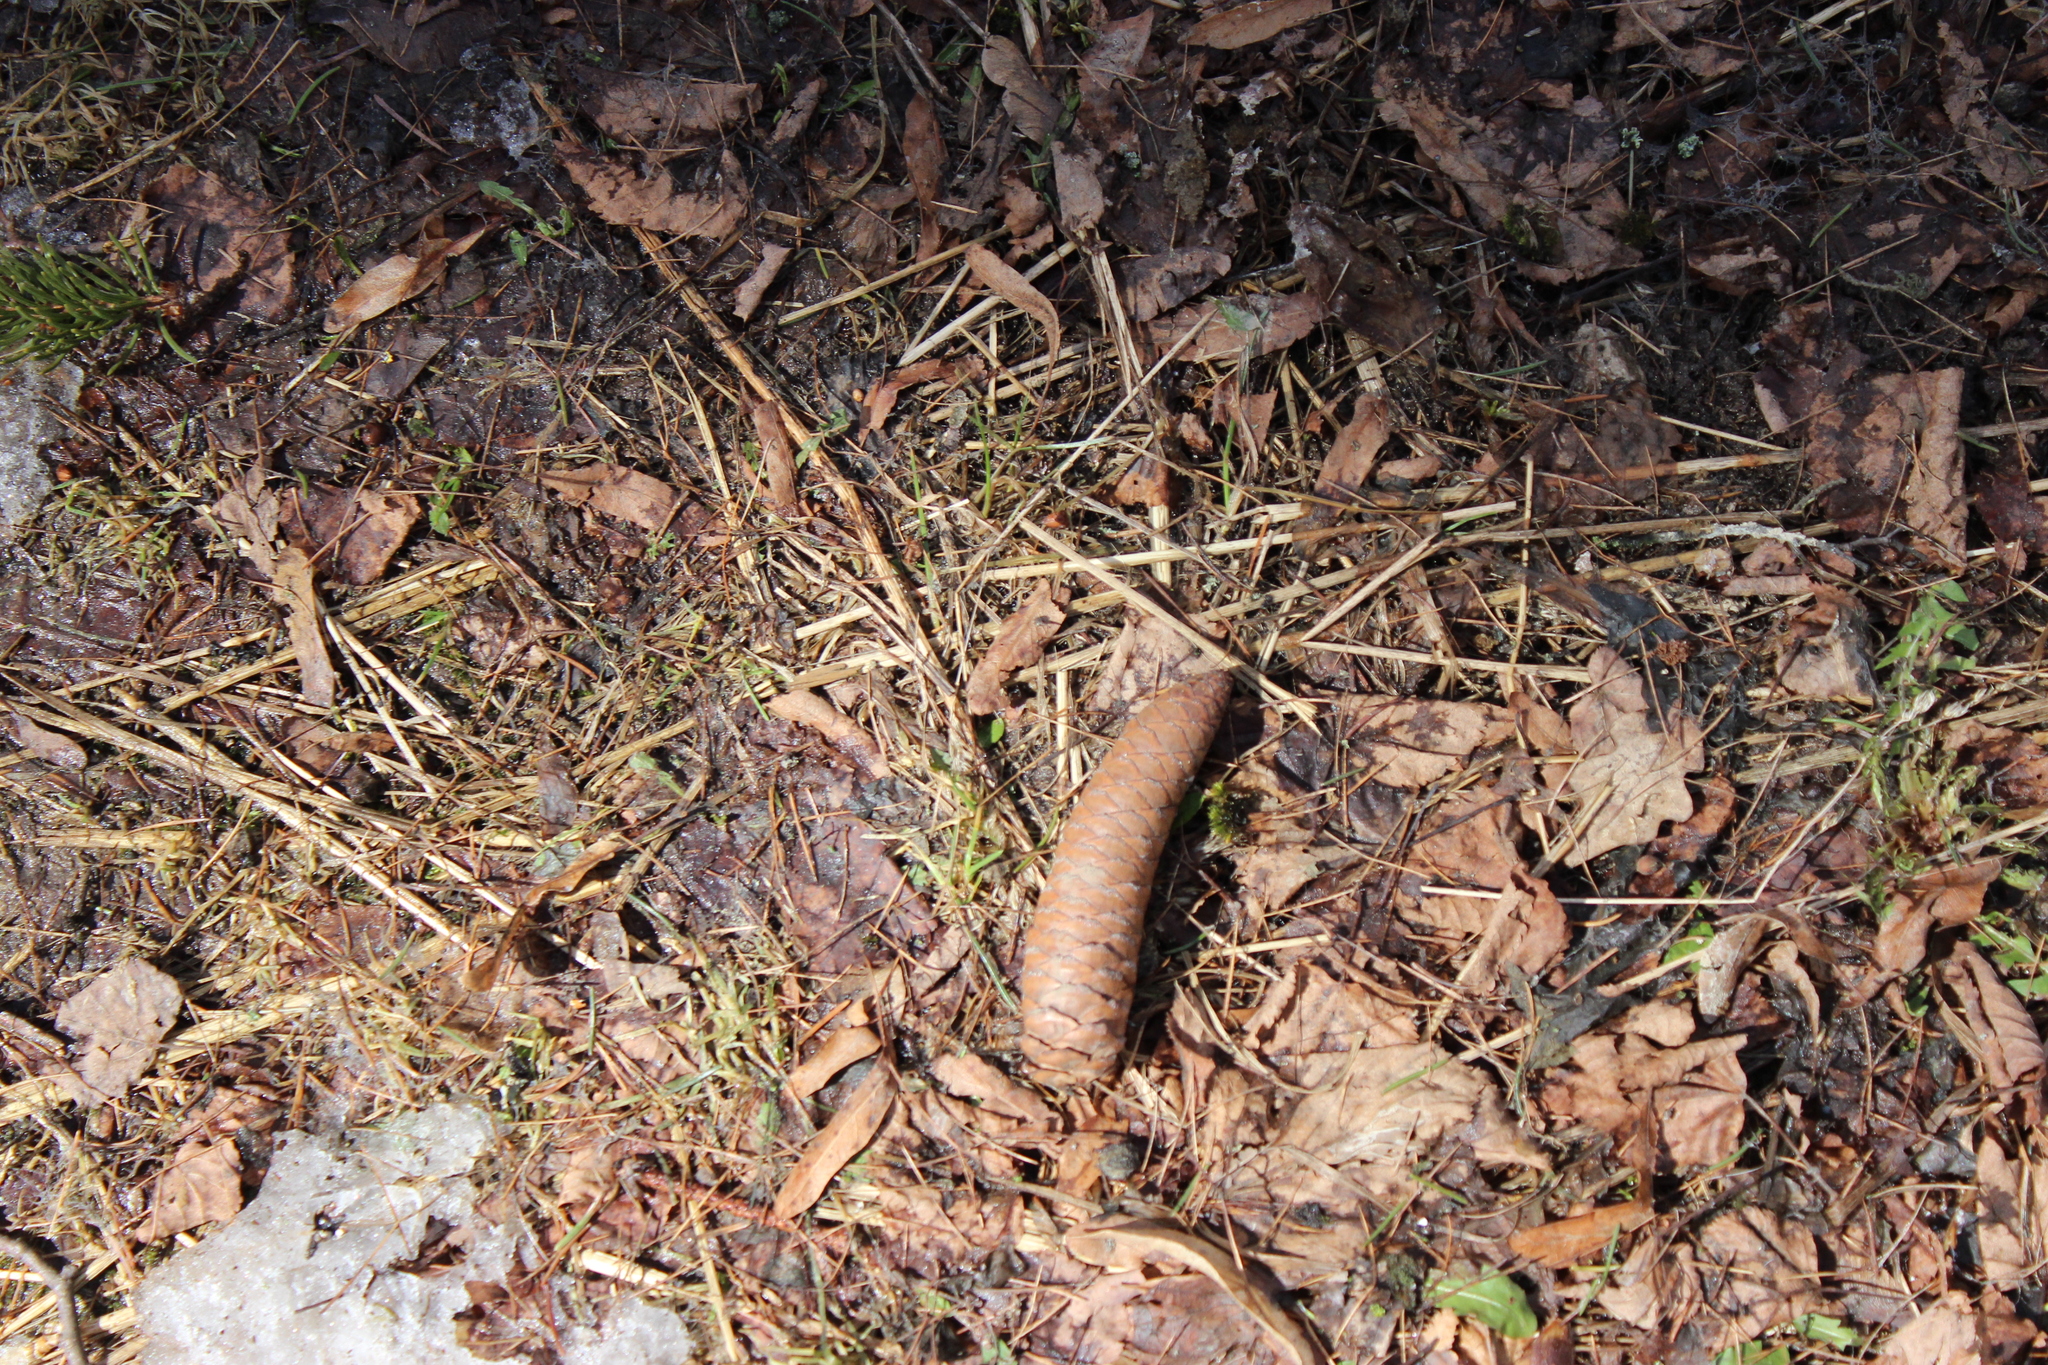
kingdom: Plantae
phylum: Tracheophyta
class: Pinopsida
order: Pinales
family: Pinaceae
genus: Picea
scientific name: Picea abies
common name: Norway spruce
